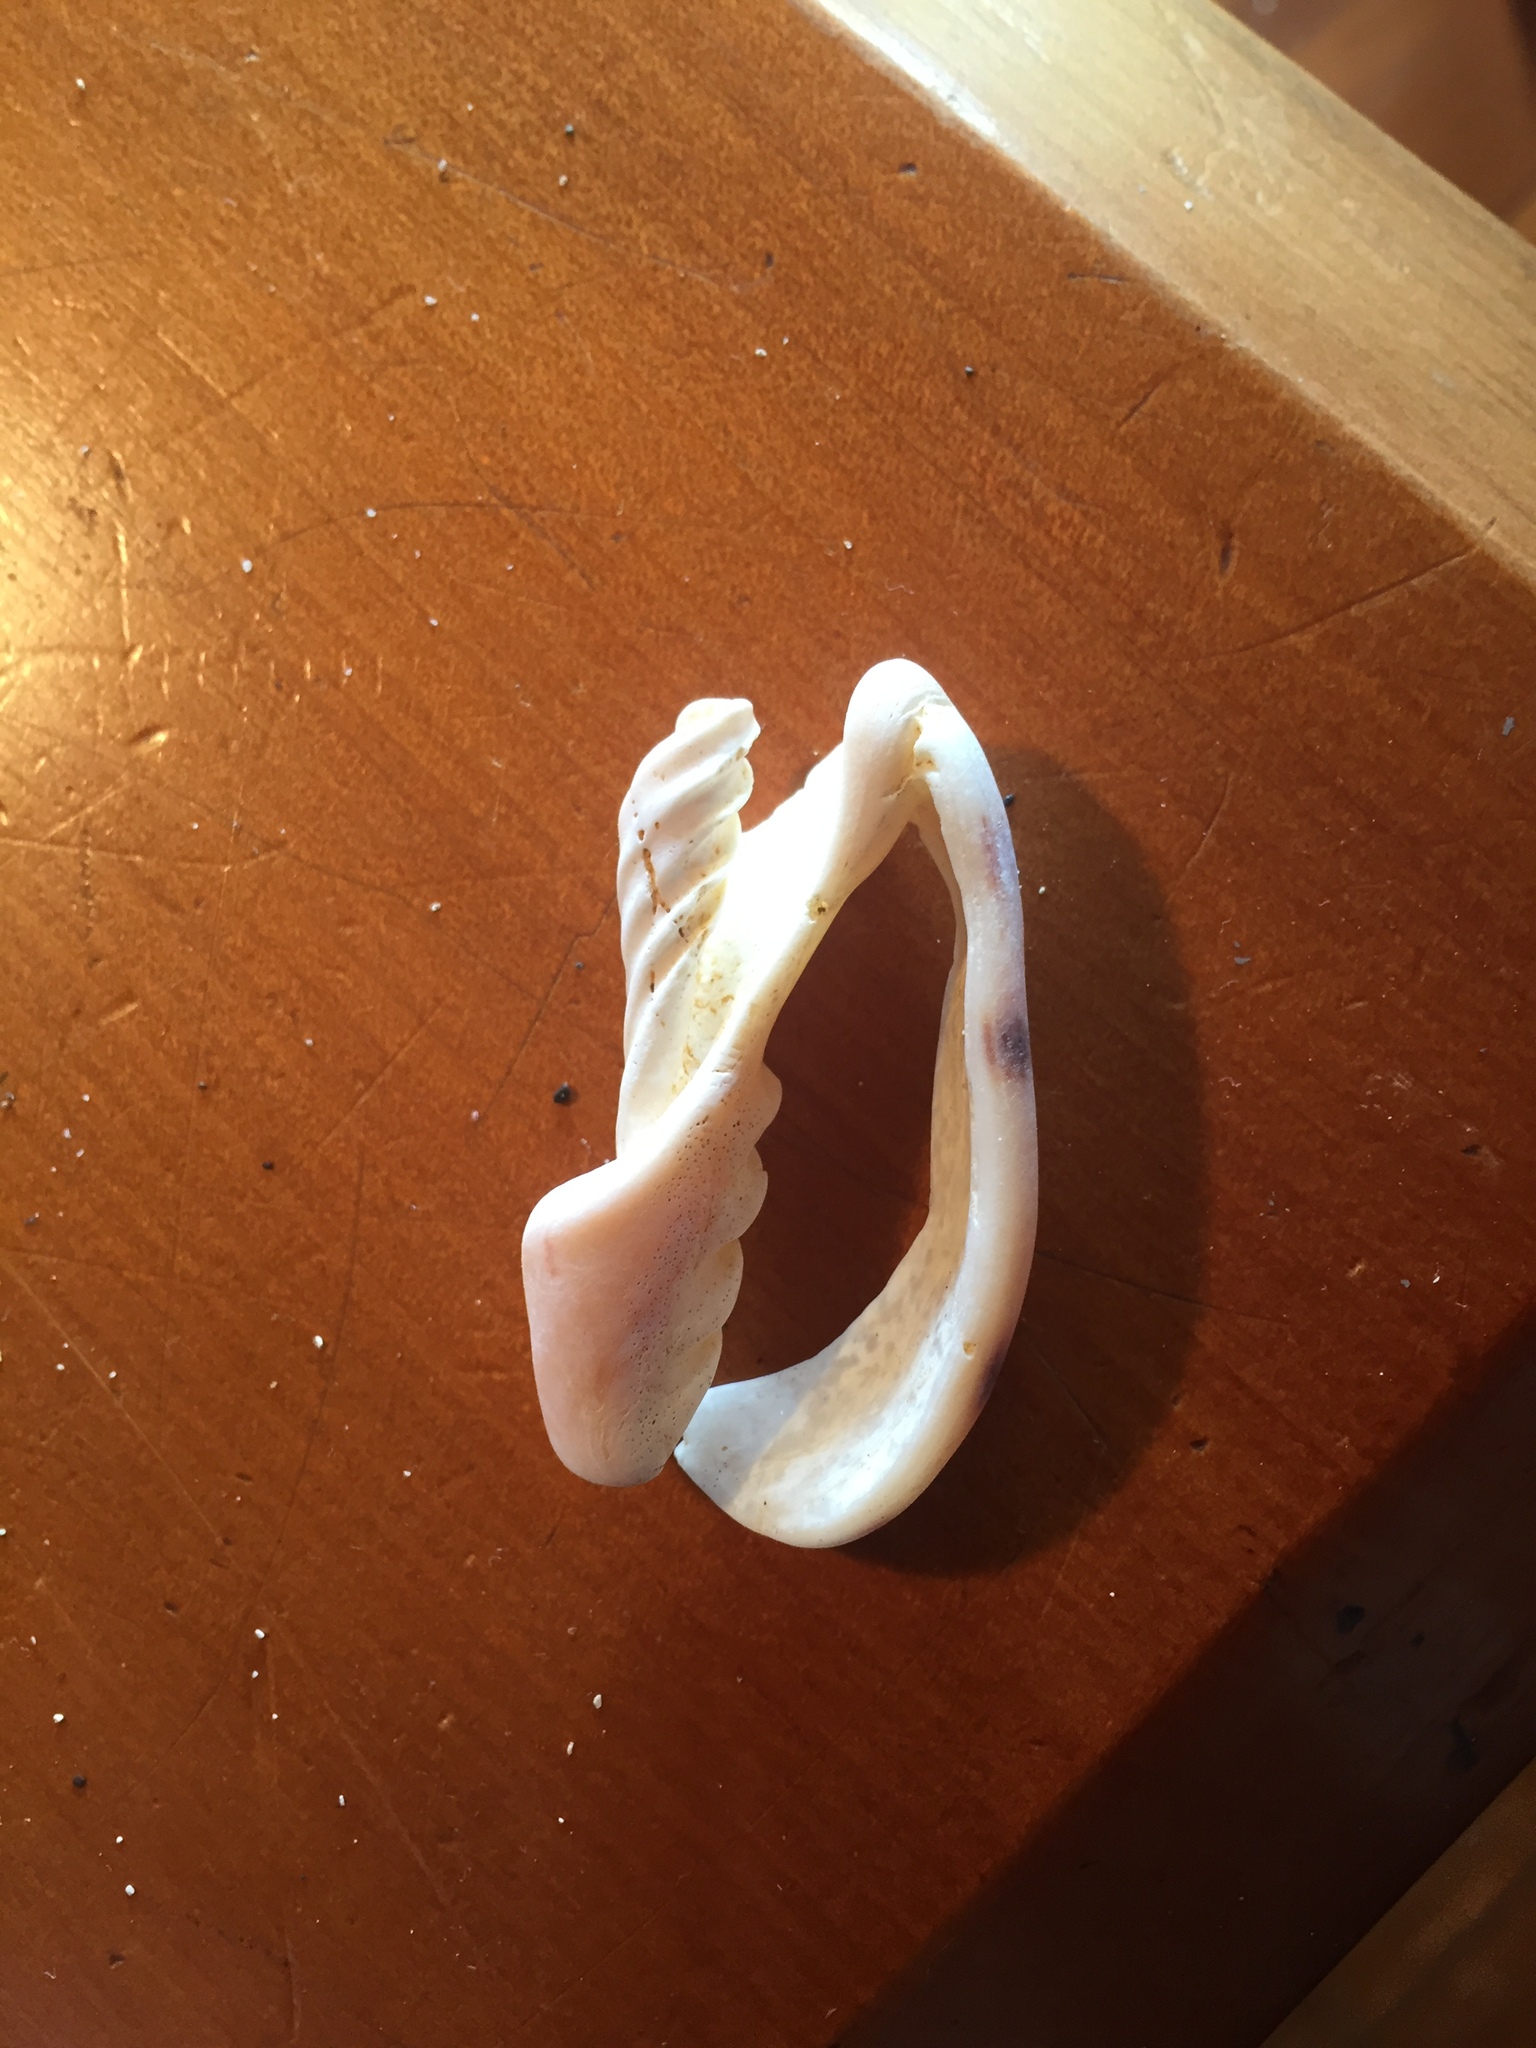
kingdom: Animalia
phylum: Mollusca
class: Gastropoda
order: Neogastropoda
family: Volutidae
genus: Alcithoe
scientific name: Alcithoe arabica
